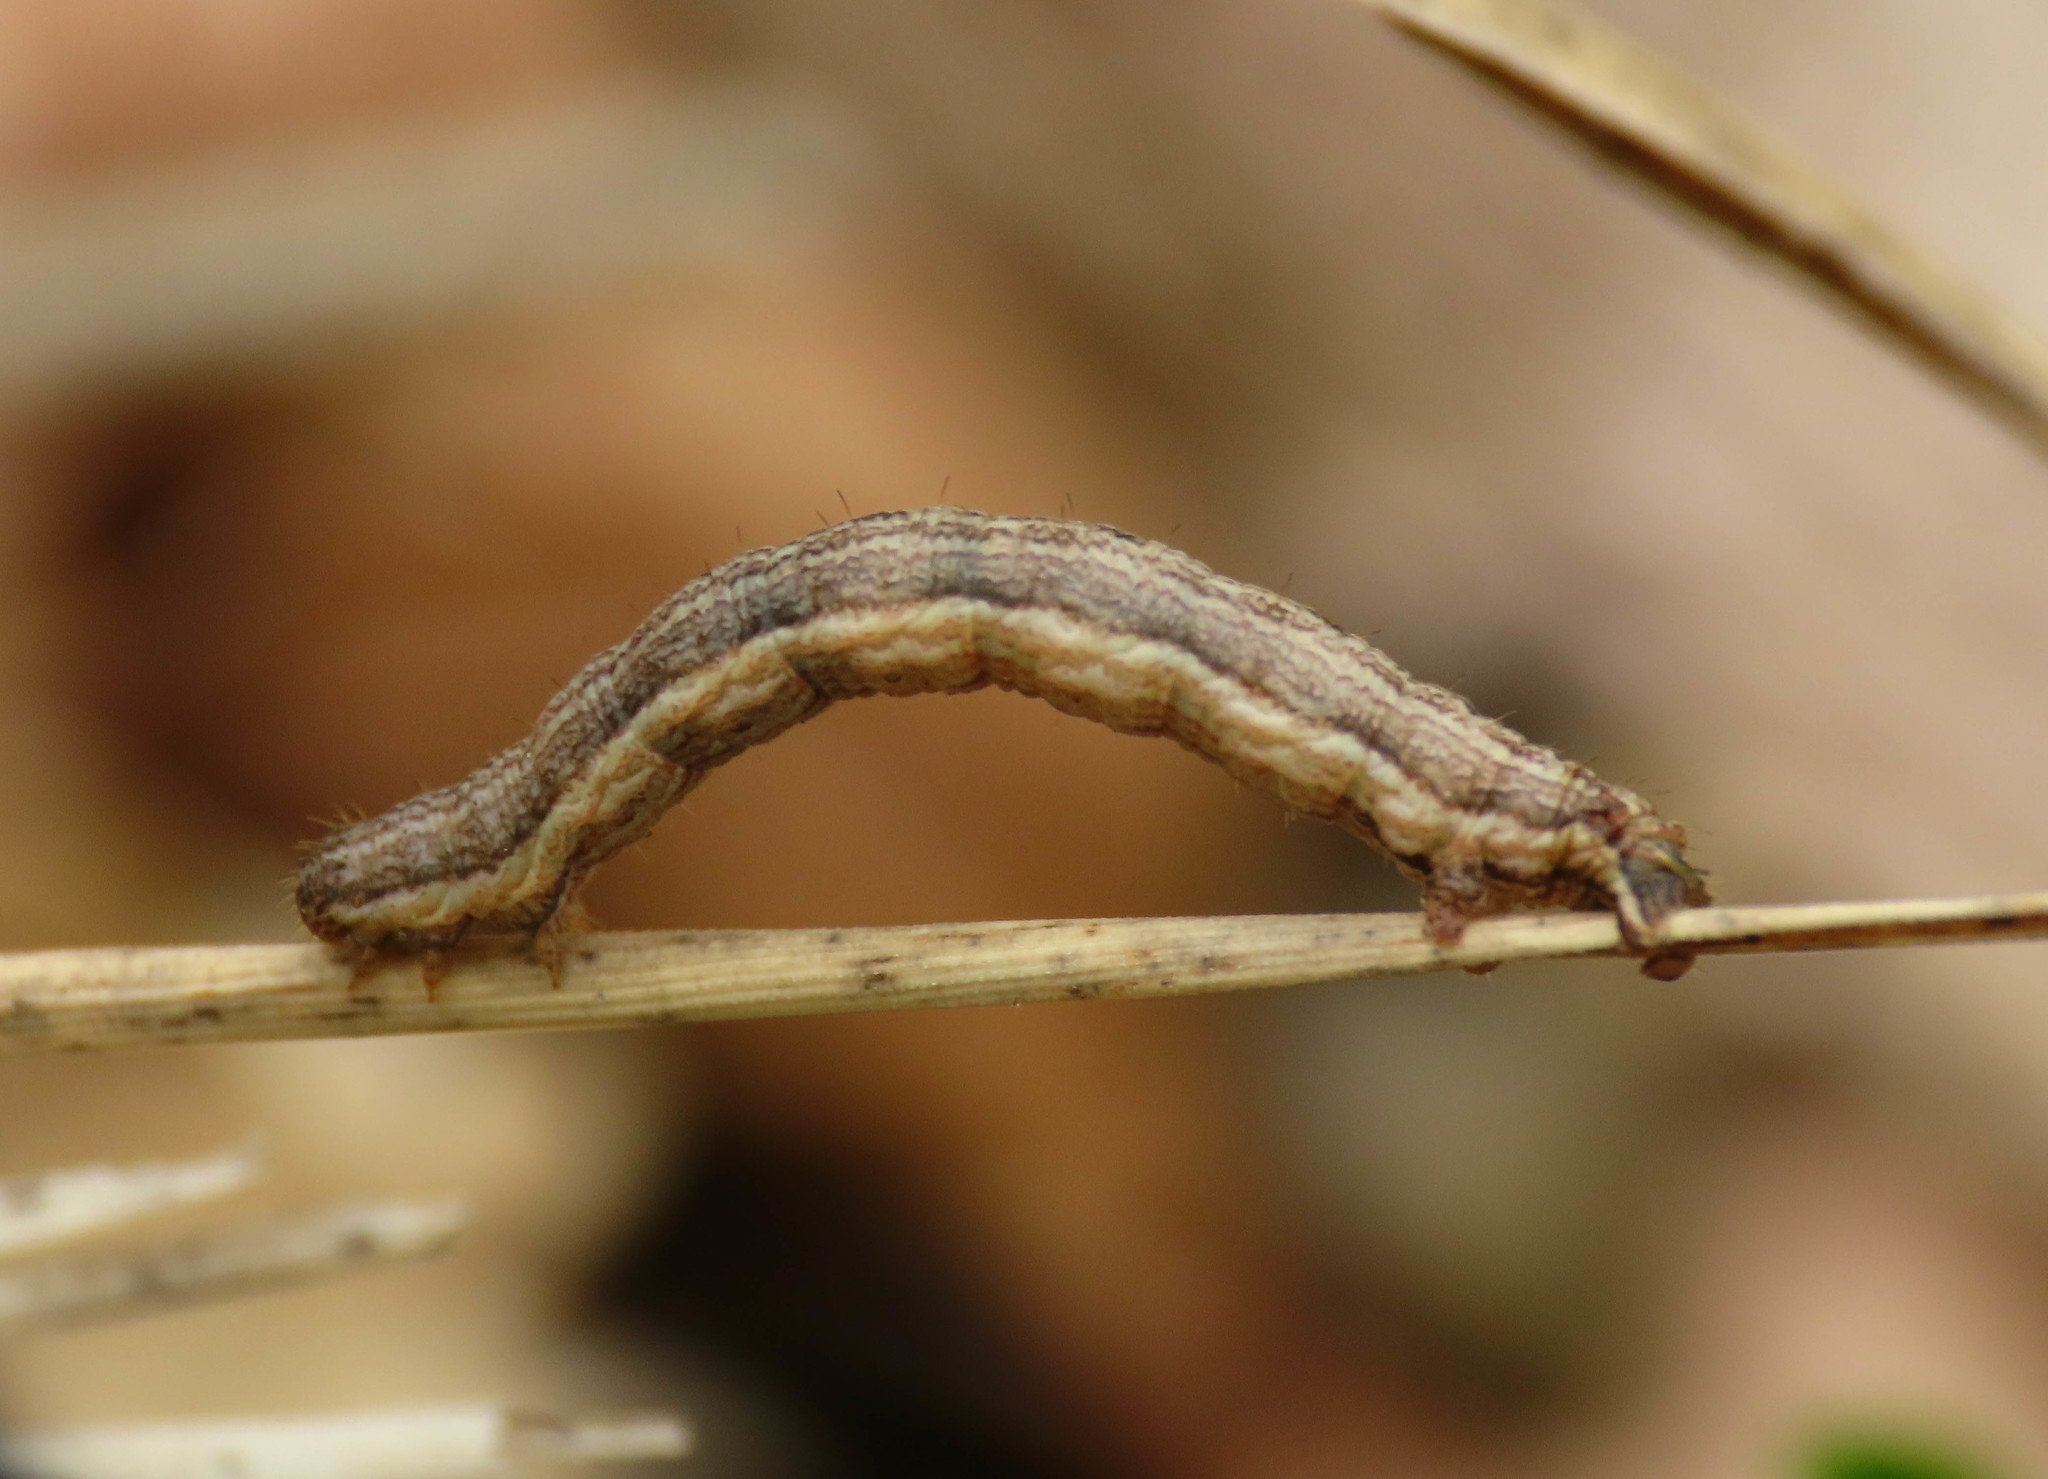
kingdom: Animalia
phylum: Arthropoda
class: Insecta
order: Lepidoptera
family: Geometridae
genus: Camptogramma
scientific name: Camptogramma bilineata
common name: Yellow shell
